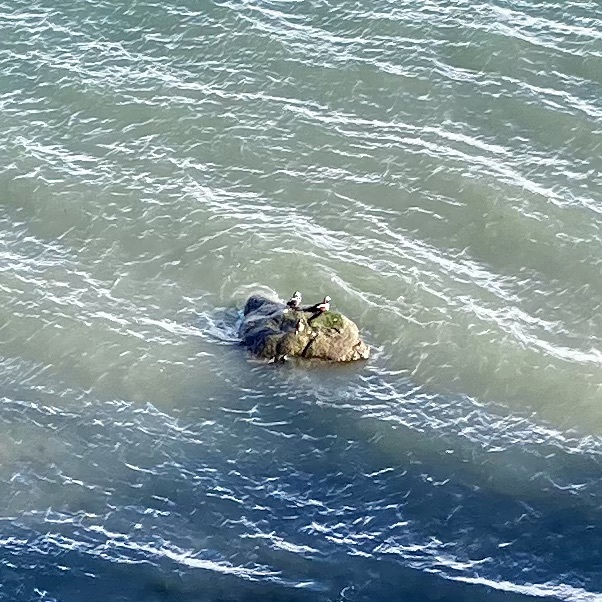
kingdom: Animalia
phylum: Chordata
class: Aves
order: Anseriformes
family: Anatidae
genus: Histrionicus
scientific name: Histrionicus histrionicus
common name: Harlequin duck
